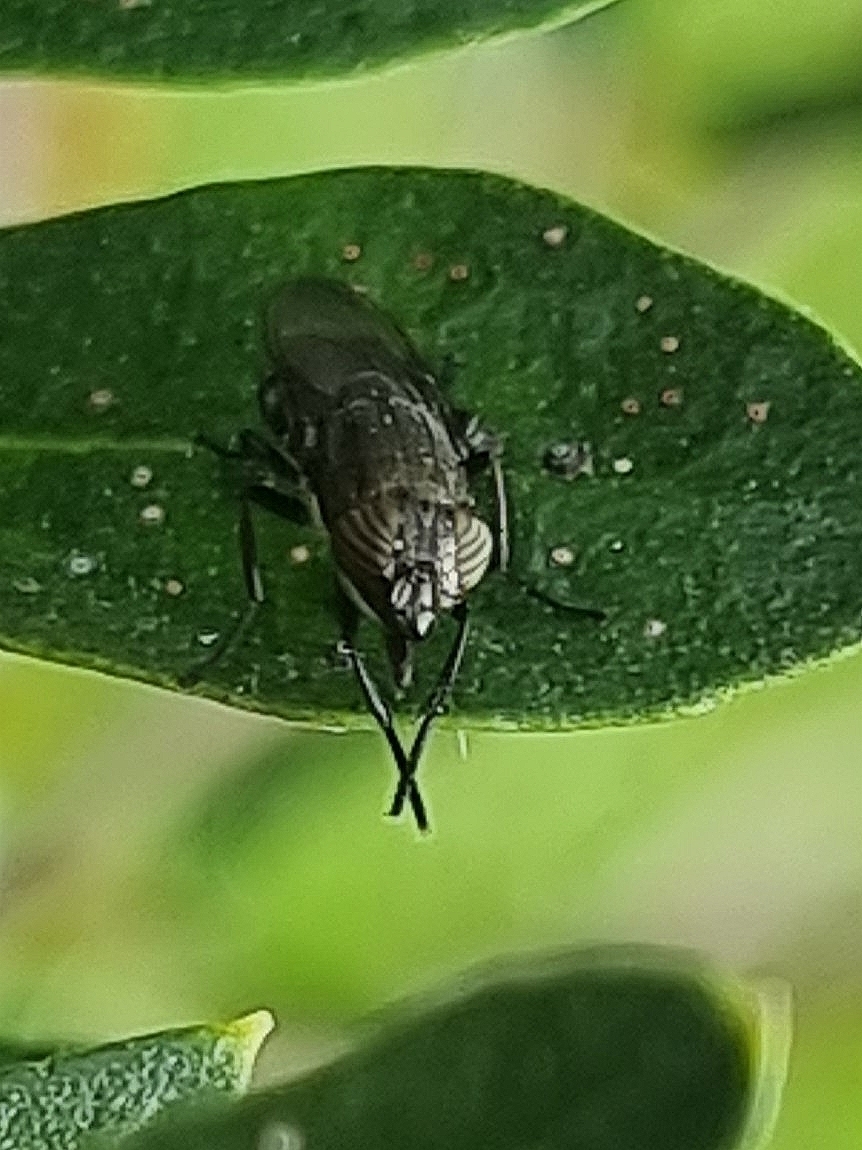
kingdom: Animalia
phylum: Arthropoda
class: Insecta
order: Diptera
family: Calliphoridae
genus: Stomorhina
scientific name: Stomorhina lunata
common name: Locust blowfly
